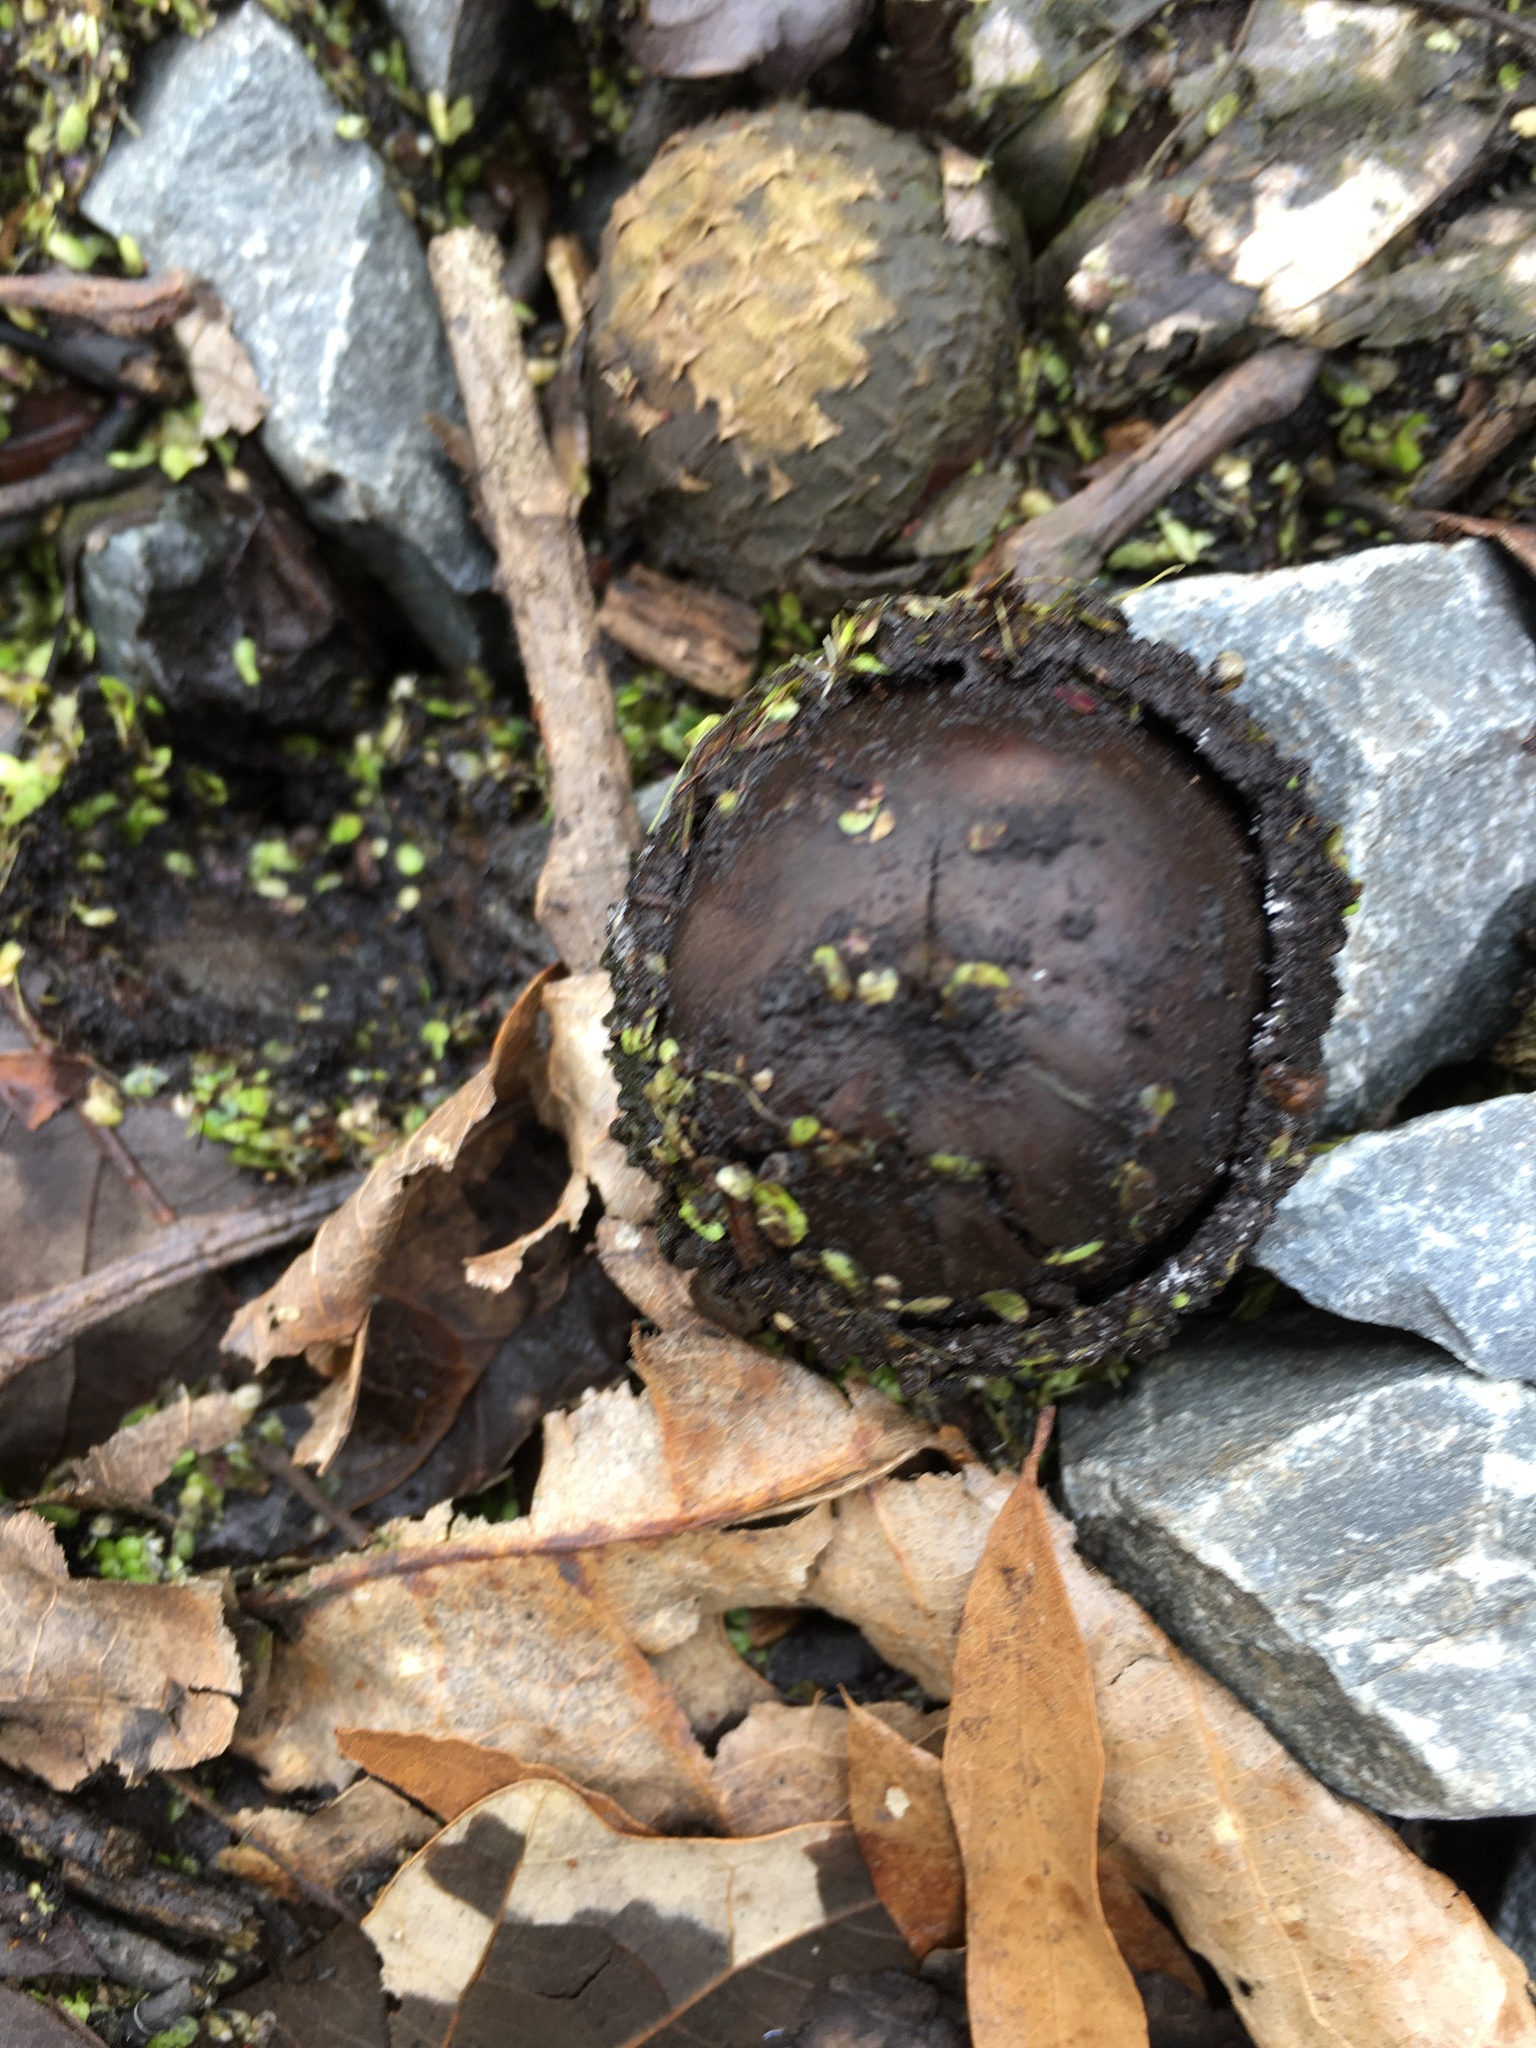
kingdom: Plantae
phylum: Tracheophyta
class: Magnoliopsida
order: Fagales
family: Fagaceae
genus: Quercus
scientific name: Quercus lyrata
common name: Overcup oak
